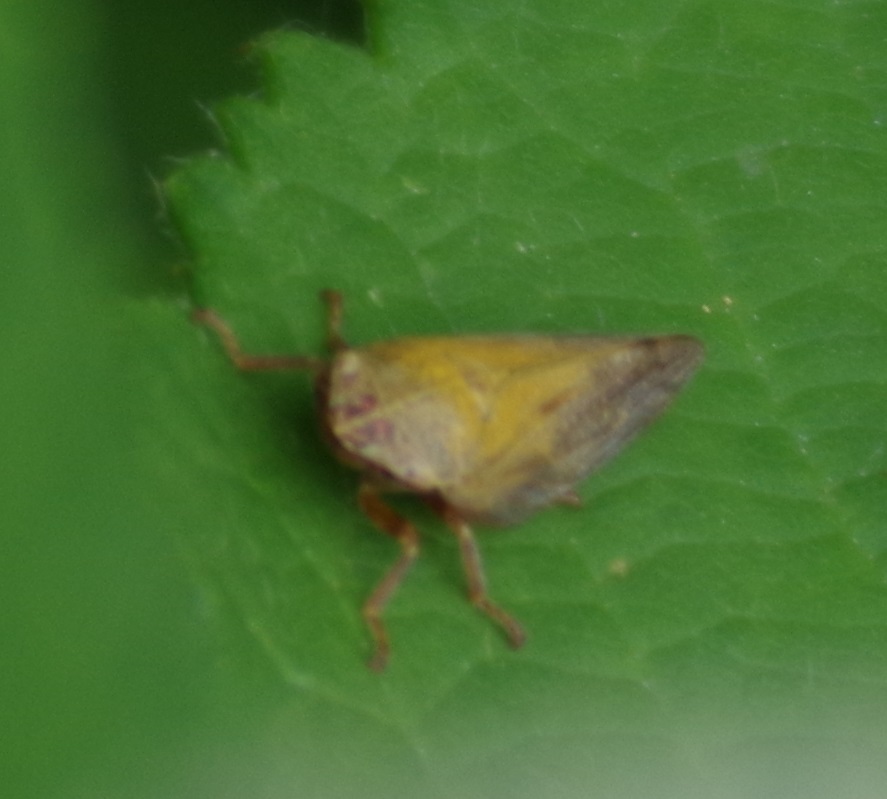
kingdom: Animalia
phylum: Arthropoda
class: Insecta
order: Hemiptera
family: Aphrophoridae
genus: Aphrophora
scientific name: Aphrophora salicina
